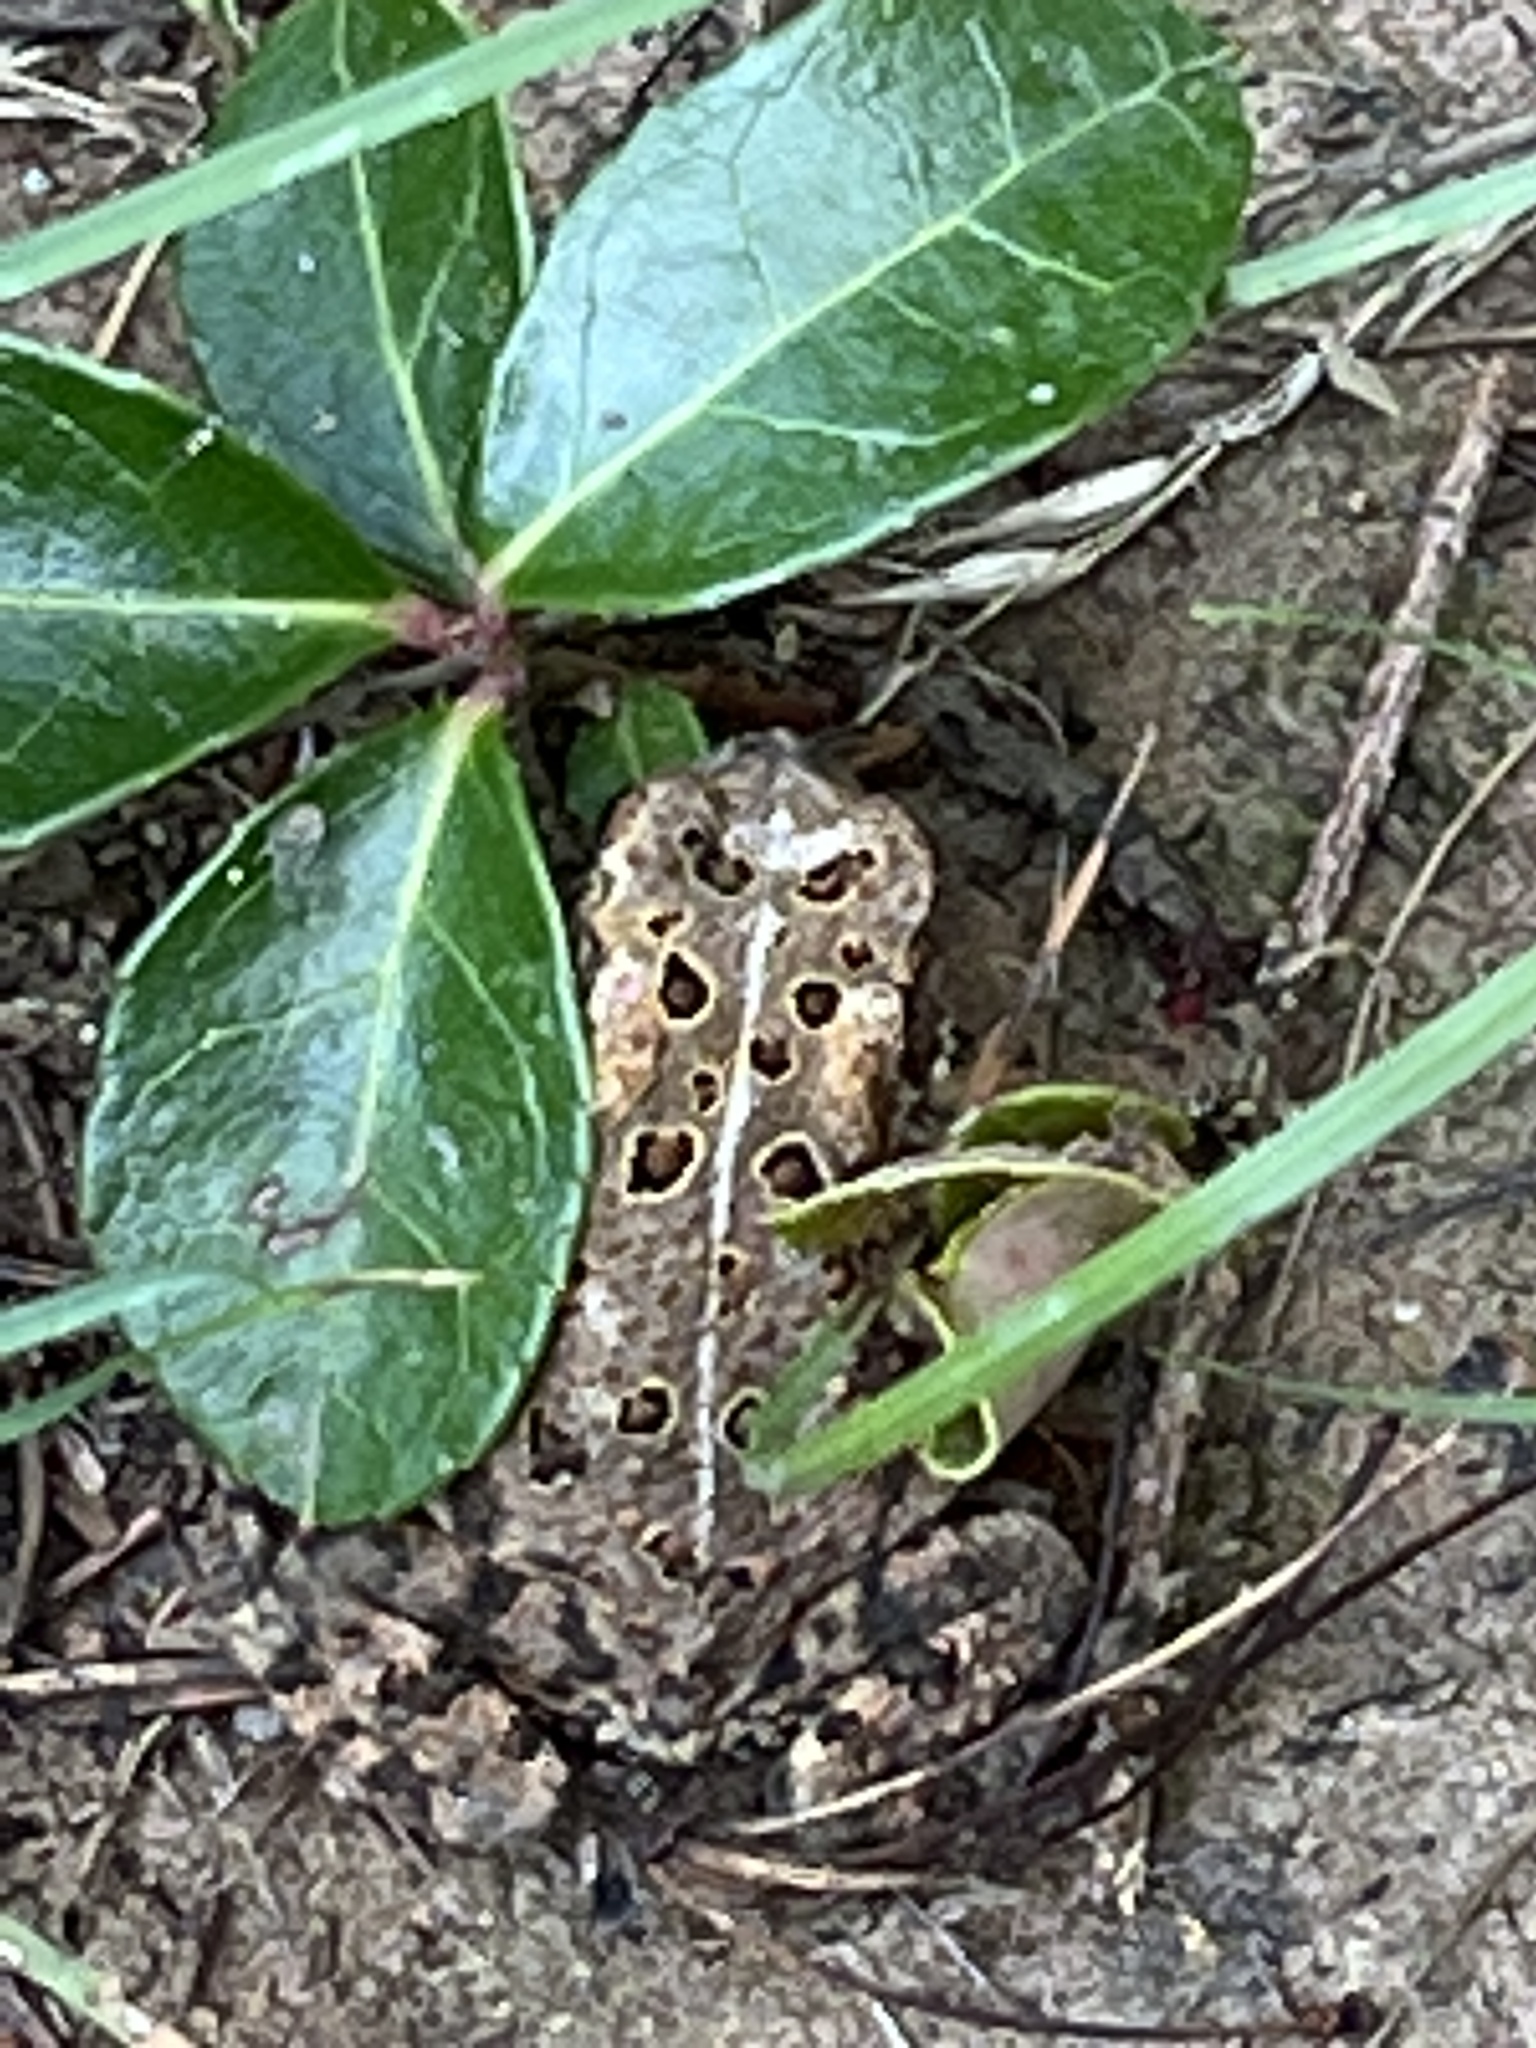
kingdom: Animalia
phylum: Chordata
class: Amphibia
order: Anura
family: Bufonidae
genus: Anaxyrus
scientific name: Anaxyrus americanus
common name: American toad
